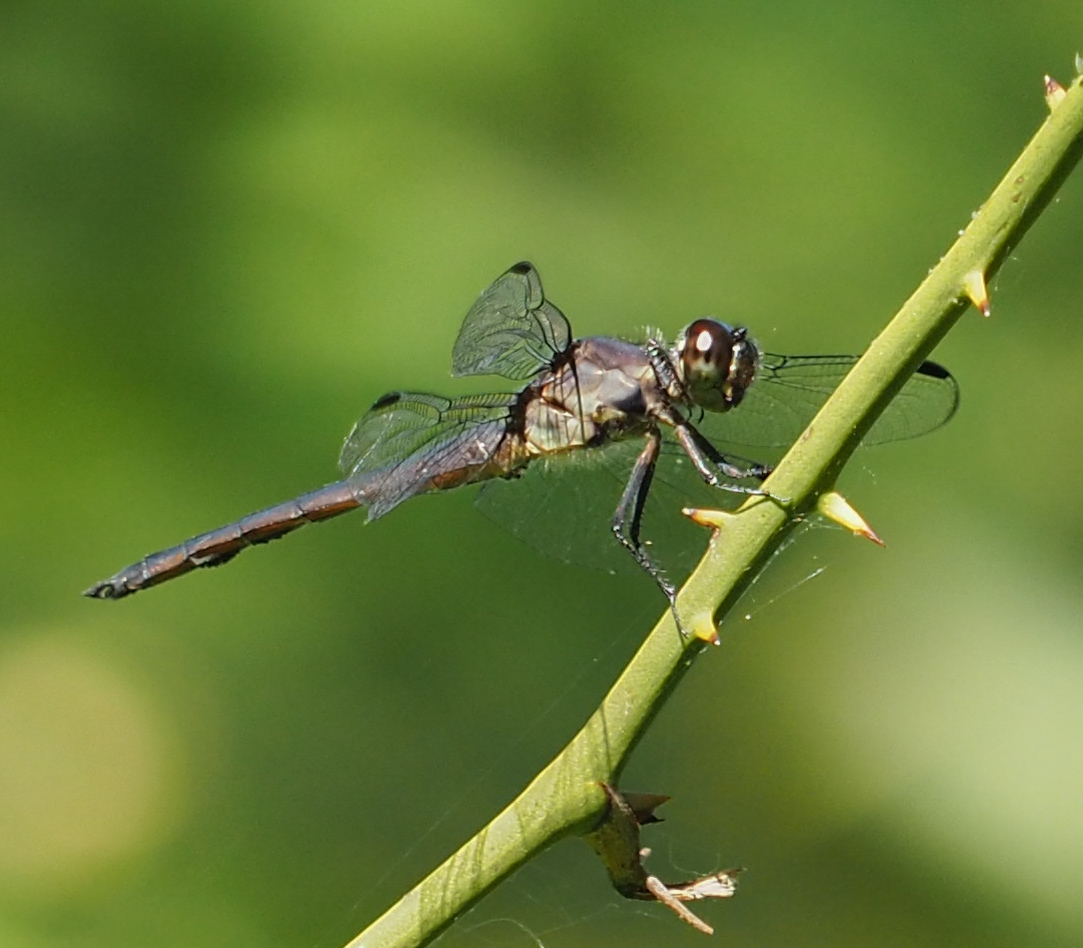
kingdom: Animalia
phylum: Arthropoda
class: Insecta
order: Odonata
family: Libellulidae
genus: Libellula
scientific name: Libellula incesta
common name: Slaty skimmer
